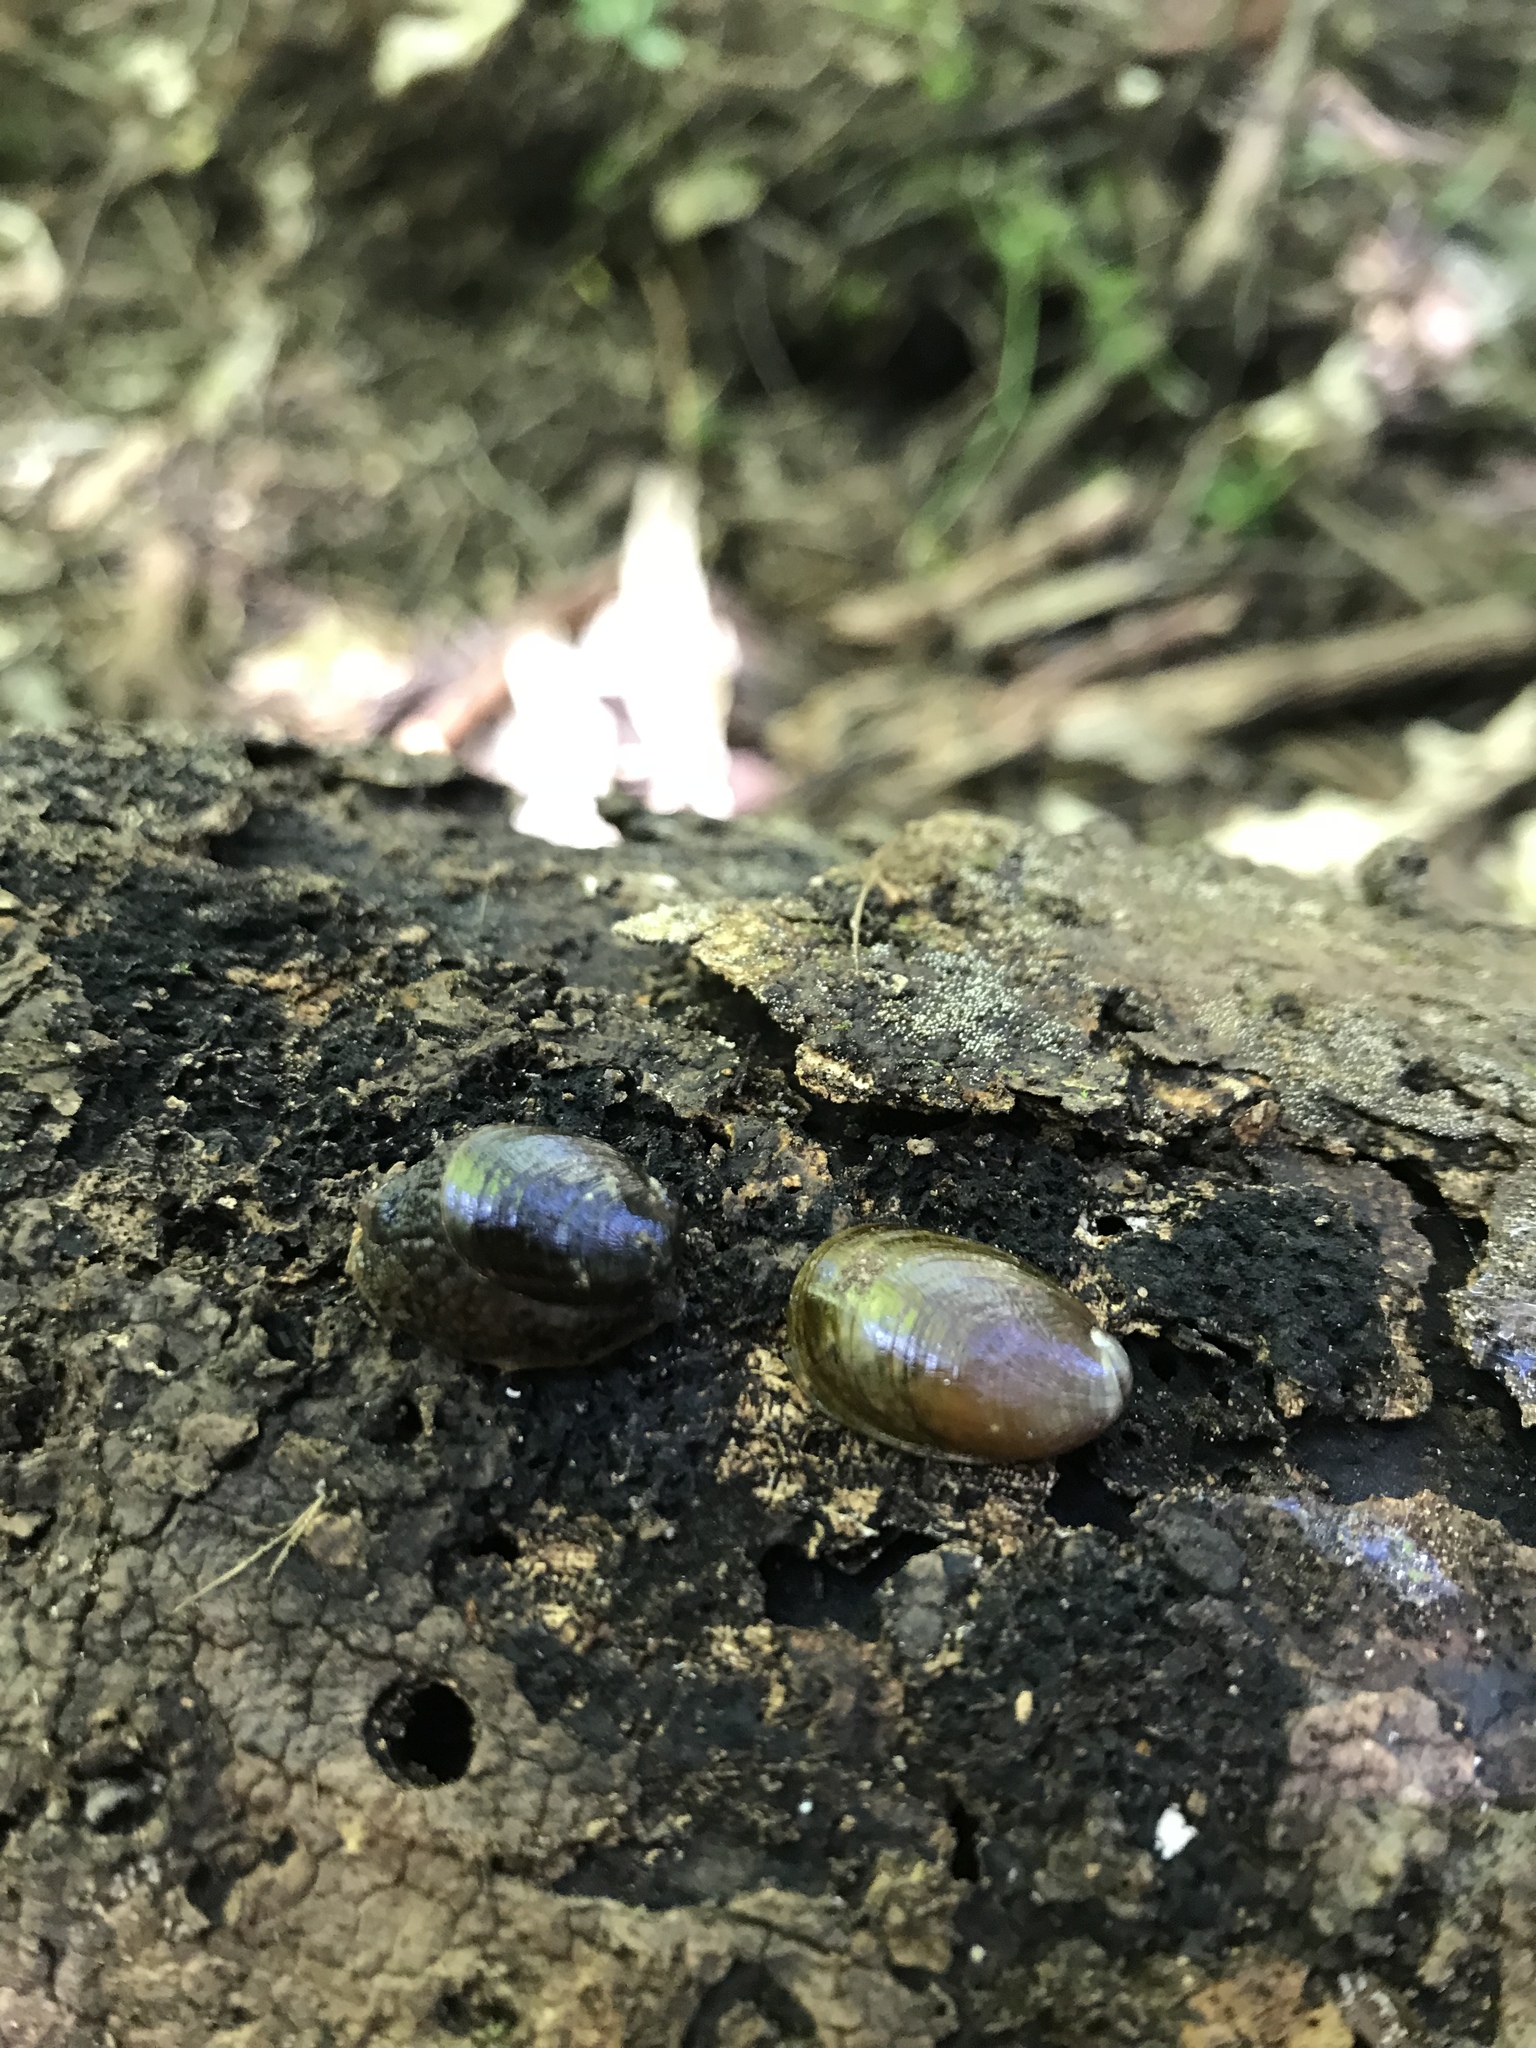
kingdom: Animalia
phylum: Mollusca
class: Gastropoda
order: Stylommatophora
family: Rhytididae
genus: Schizoglossa
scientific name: Schizoglossa novoseelandica
